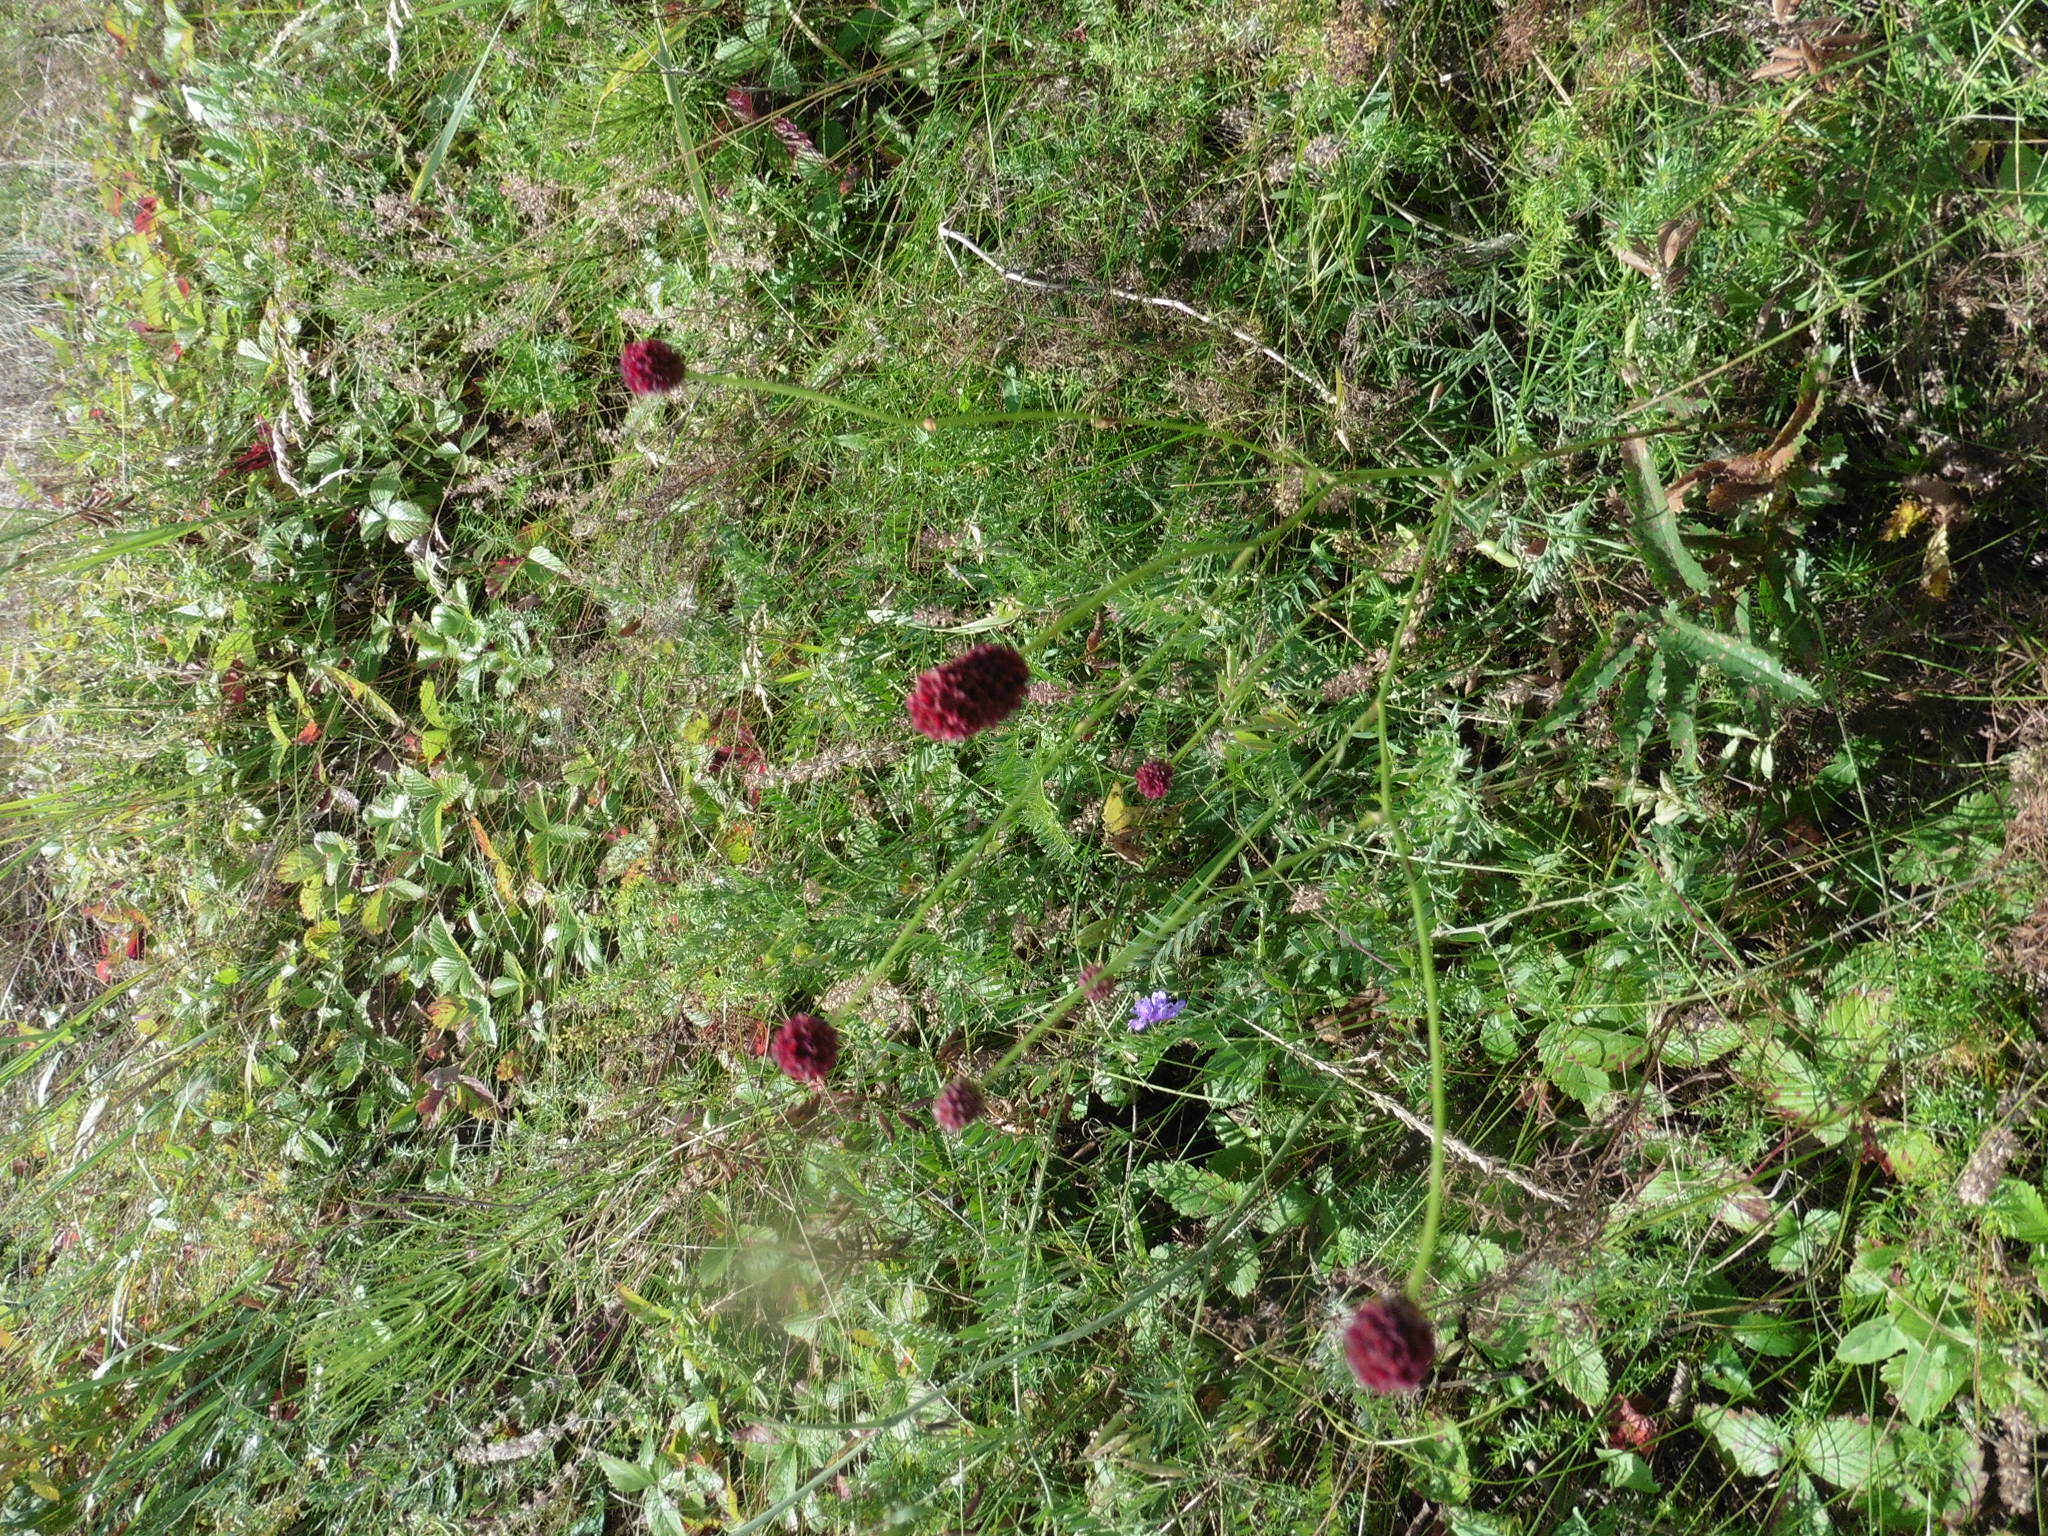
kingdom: Plantae
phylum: Tracheophyta
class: Magnoliopsida
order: Rosales
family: Rosaceae
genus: Sanguisorba
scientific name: Sanguisorba officinalis
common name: Great burnet
